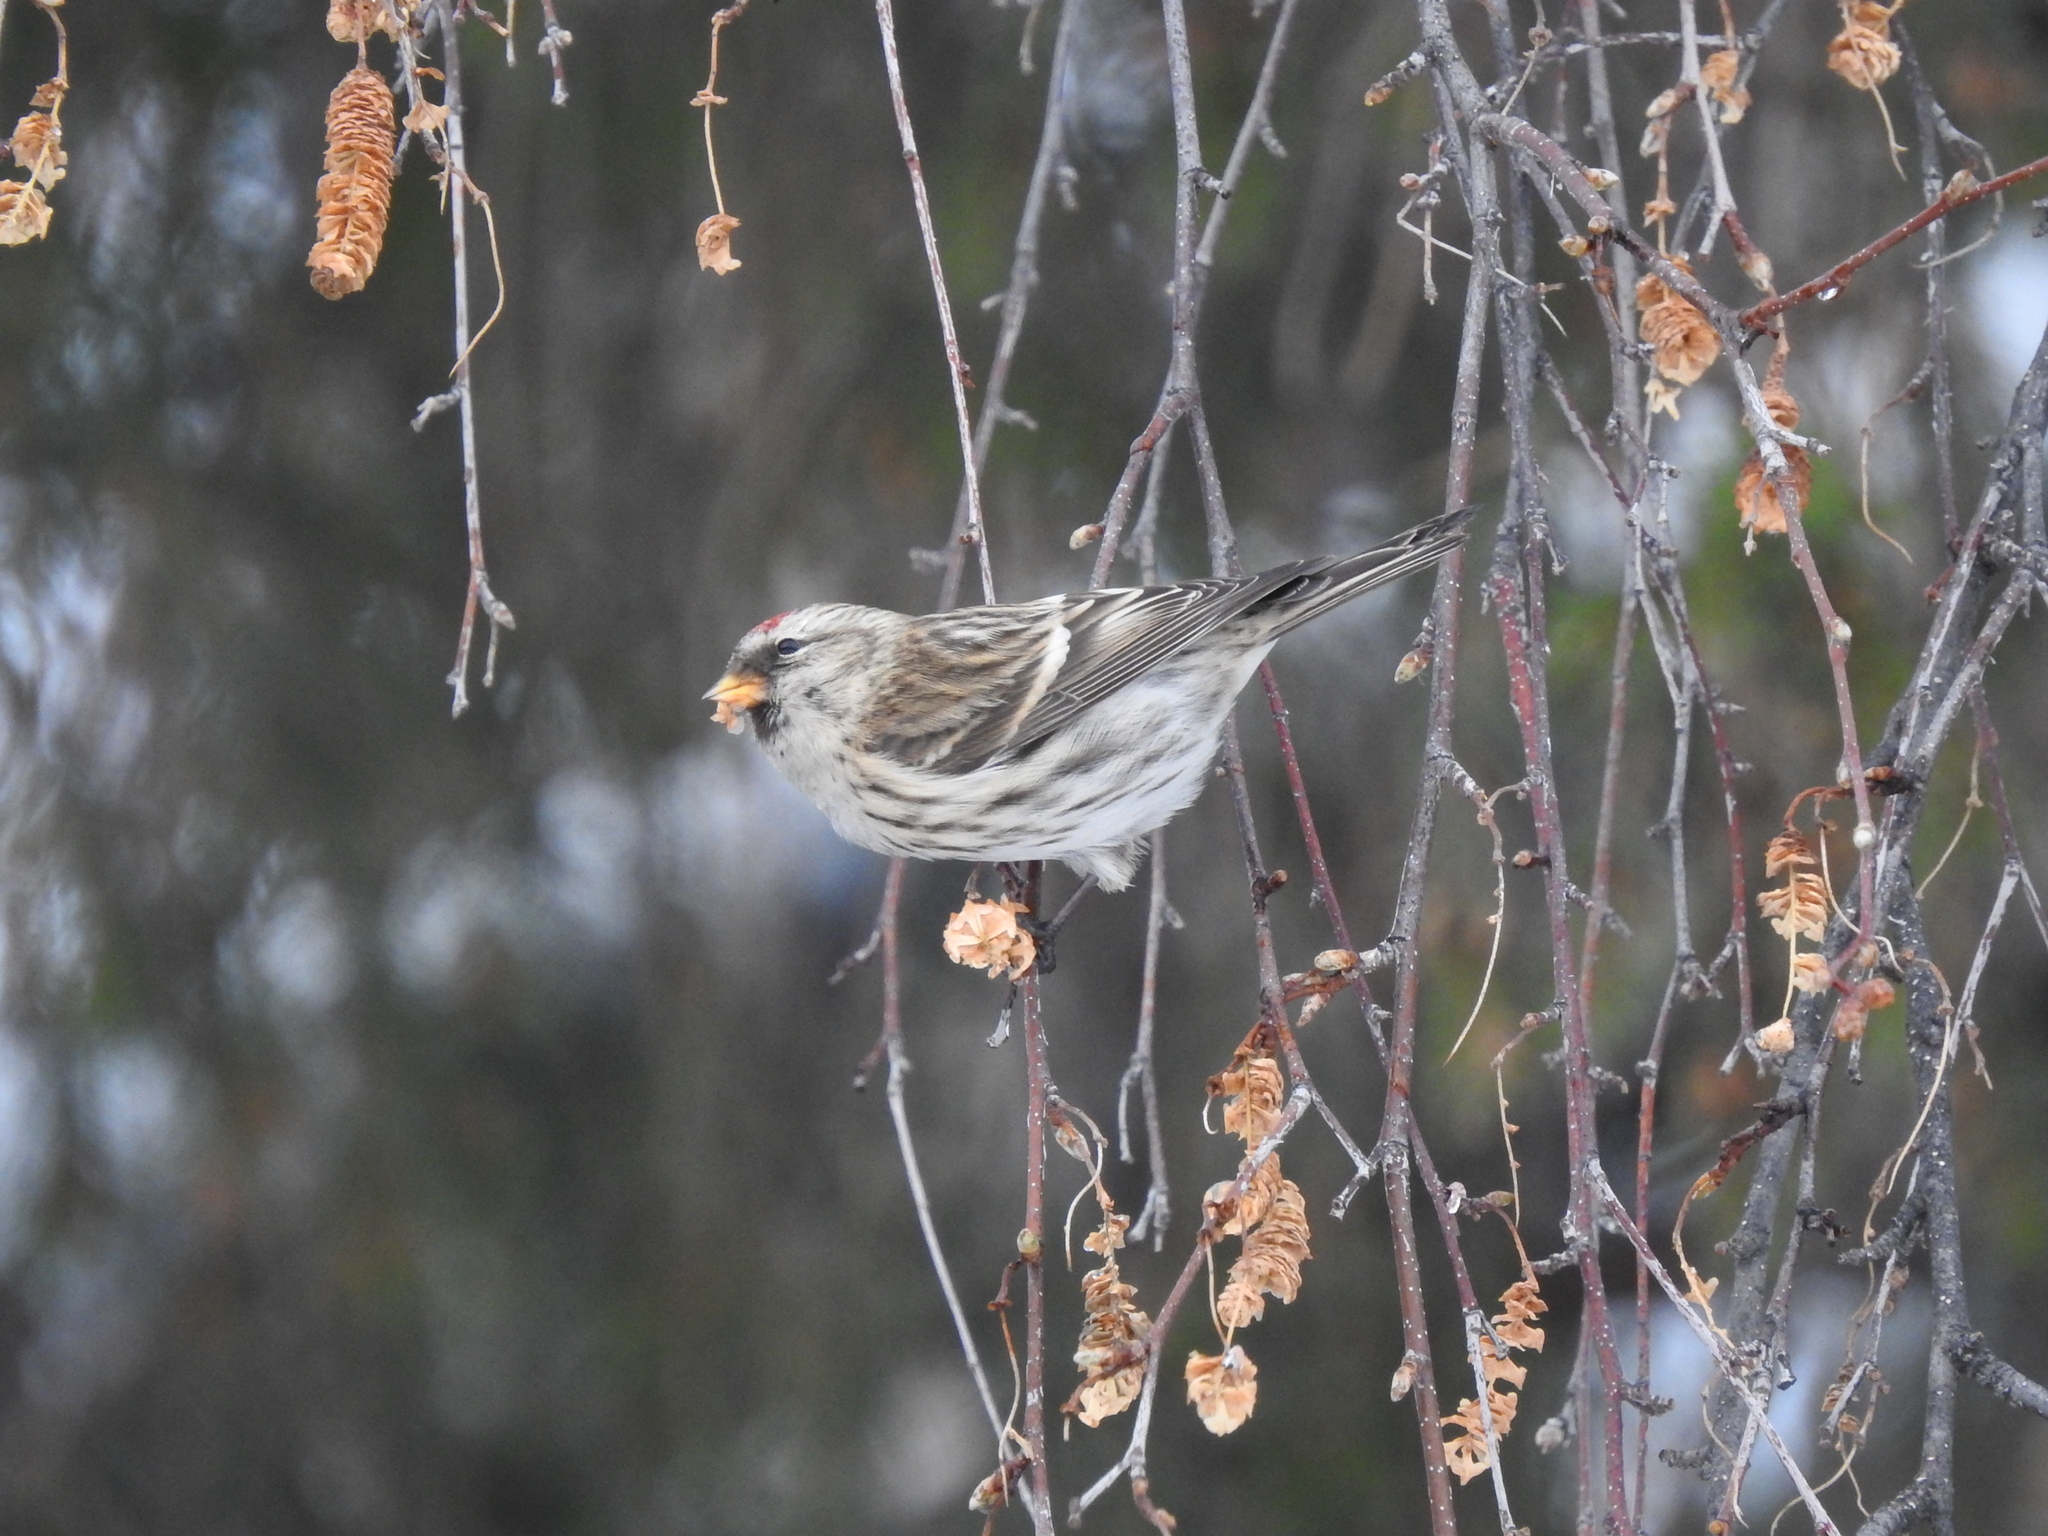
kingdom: Animalia
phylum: Chordata
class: Aves
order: Passeriformes
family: Fringillidae
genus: Acanthis
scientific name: Acanthis flammea
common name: Common redpoll
